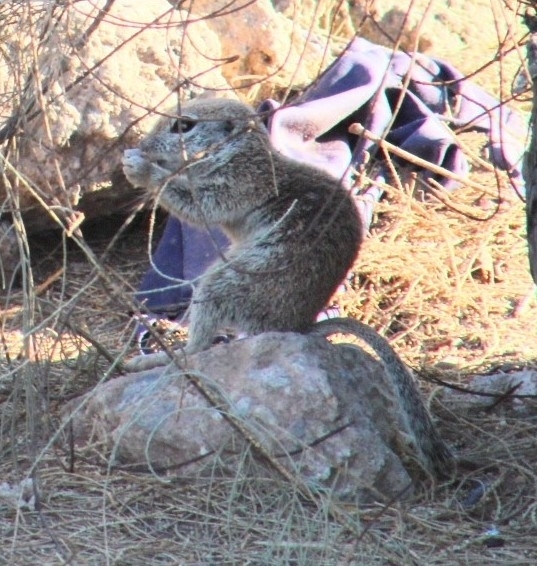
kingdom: Animalia
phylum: Chordata
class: Mammalia
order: Rodentia
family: Sciuridae
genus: Xerospermophilus
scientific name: Xerospermophilus tereticaudus
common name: Round-tailed ground squirrel
